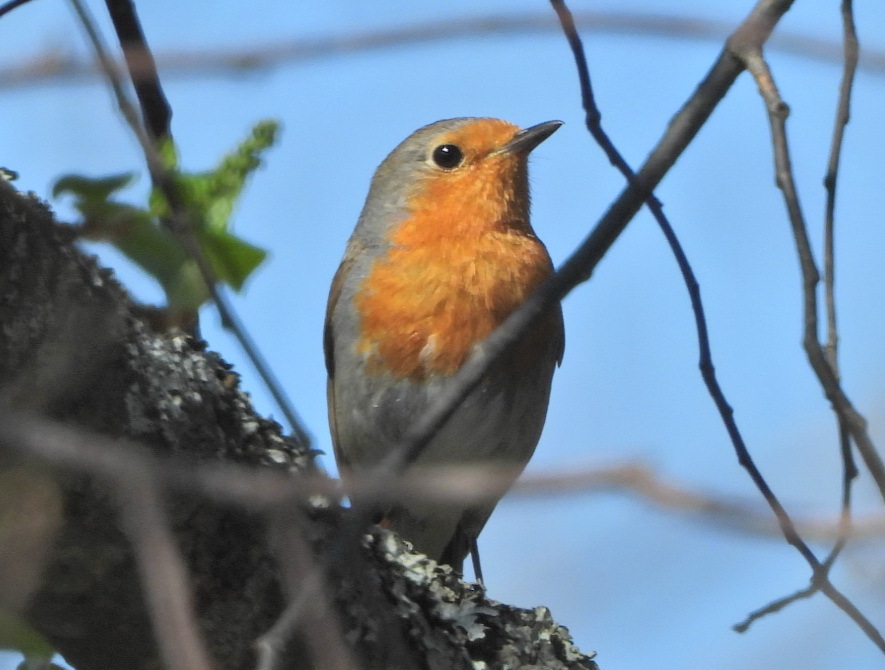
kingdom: Animalia
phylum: Chordata
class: Aves
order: Passeriformes
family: Muscicapidae
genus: Erithacus
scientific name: Erithacus rubecula
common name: European robin
